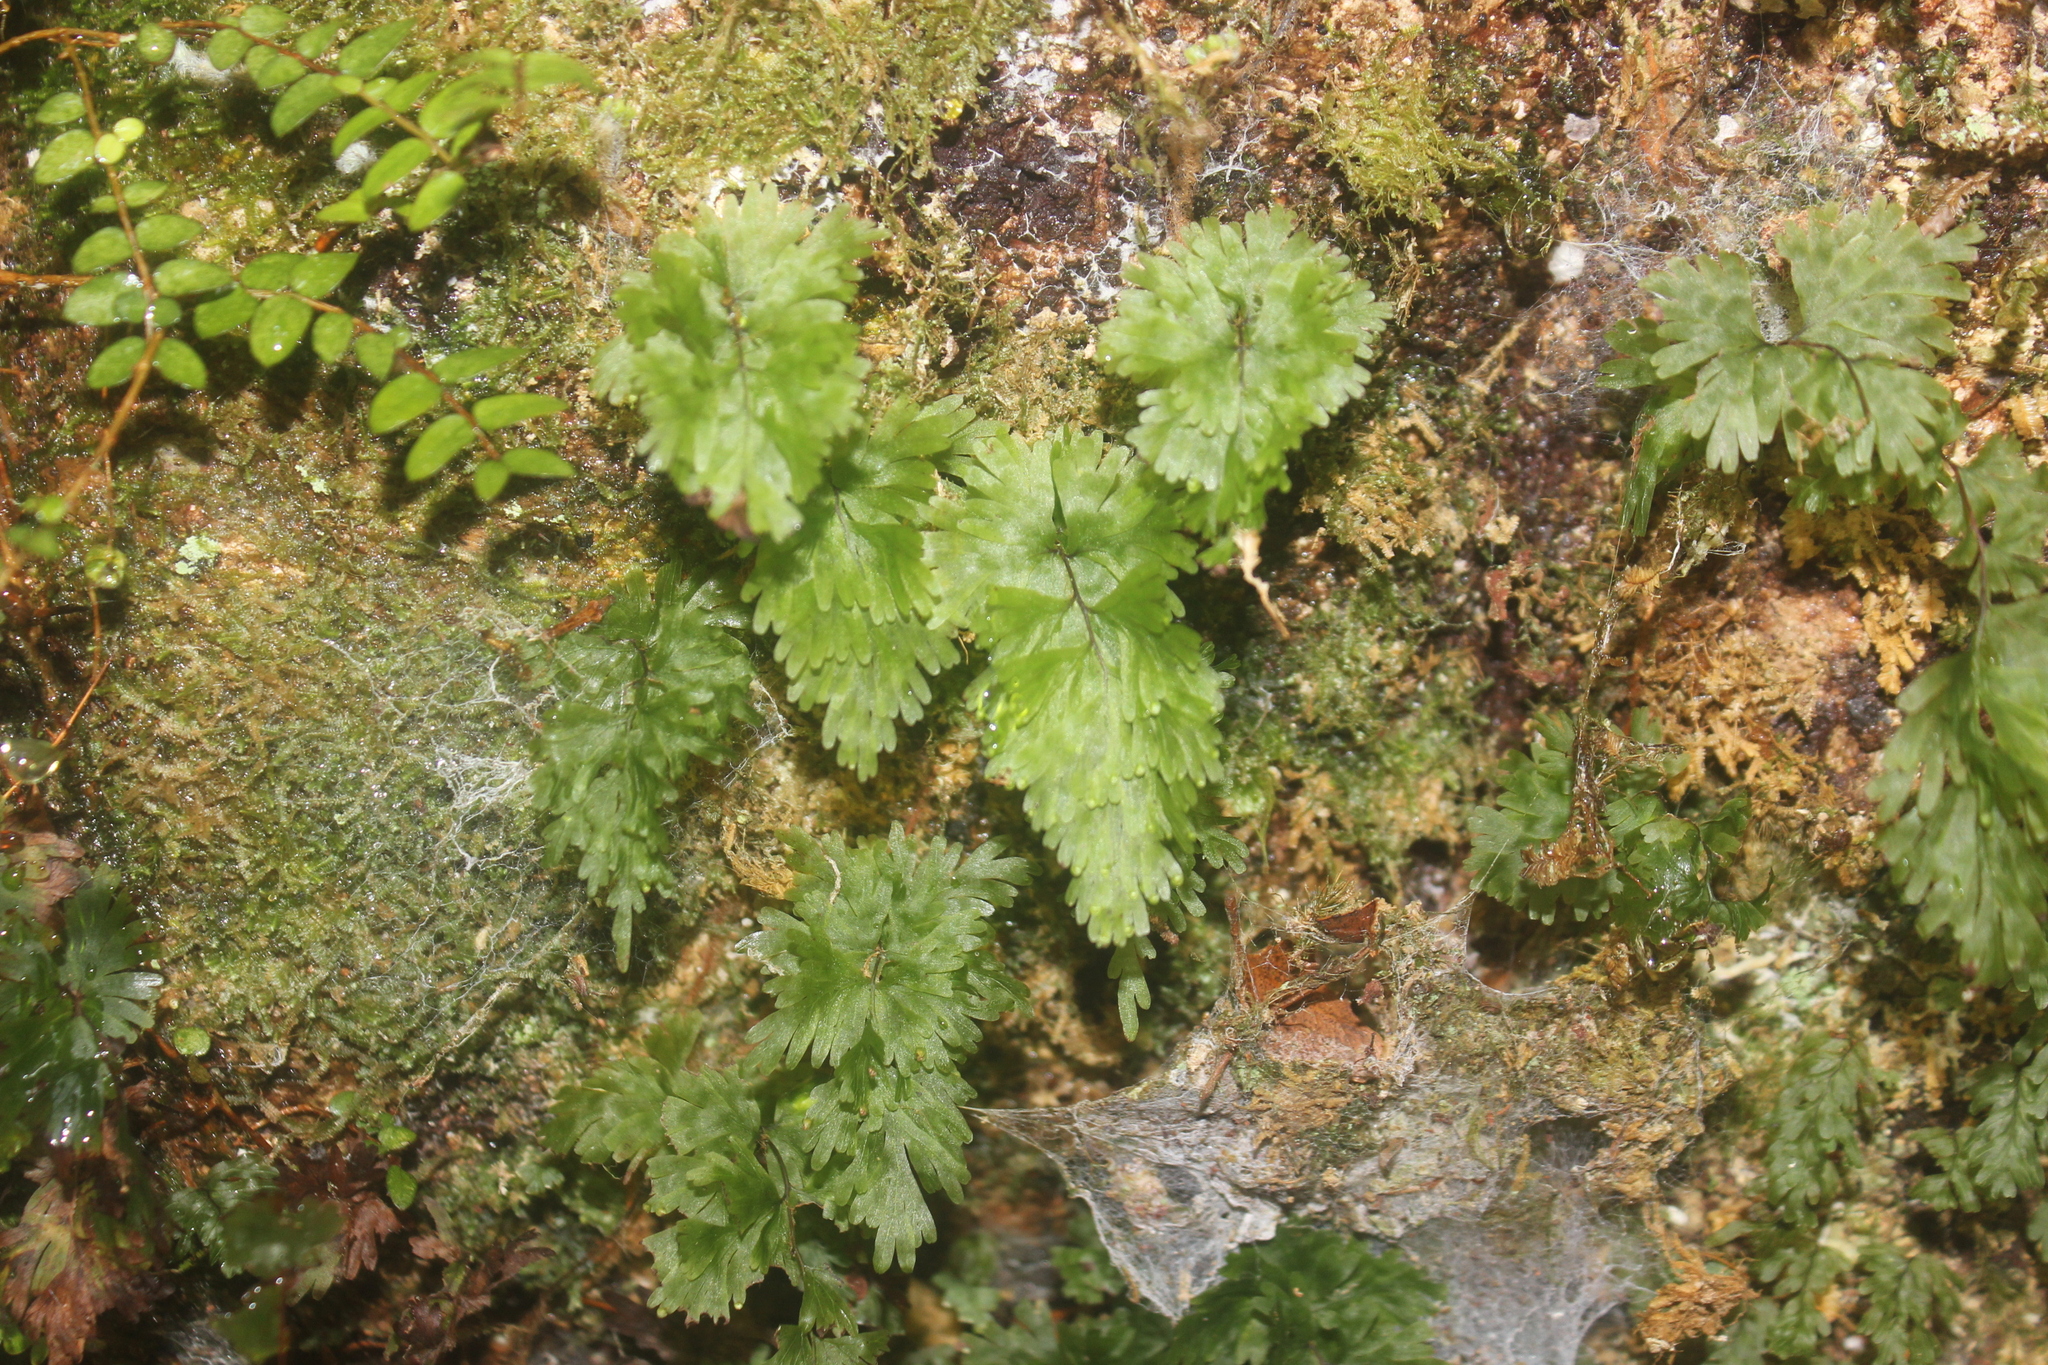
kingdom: Plantae
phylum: Tracheophyta
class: Polypodiopsida
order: Hymenophyllales
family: Hymenophyllaceae
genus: Hymenophyllum
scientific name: Hymenophyllum flabellatum
